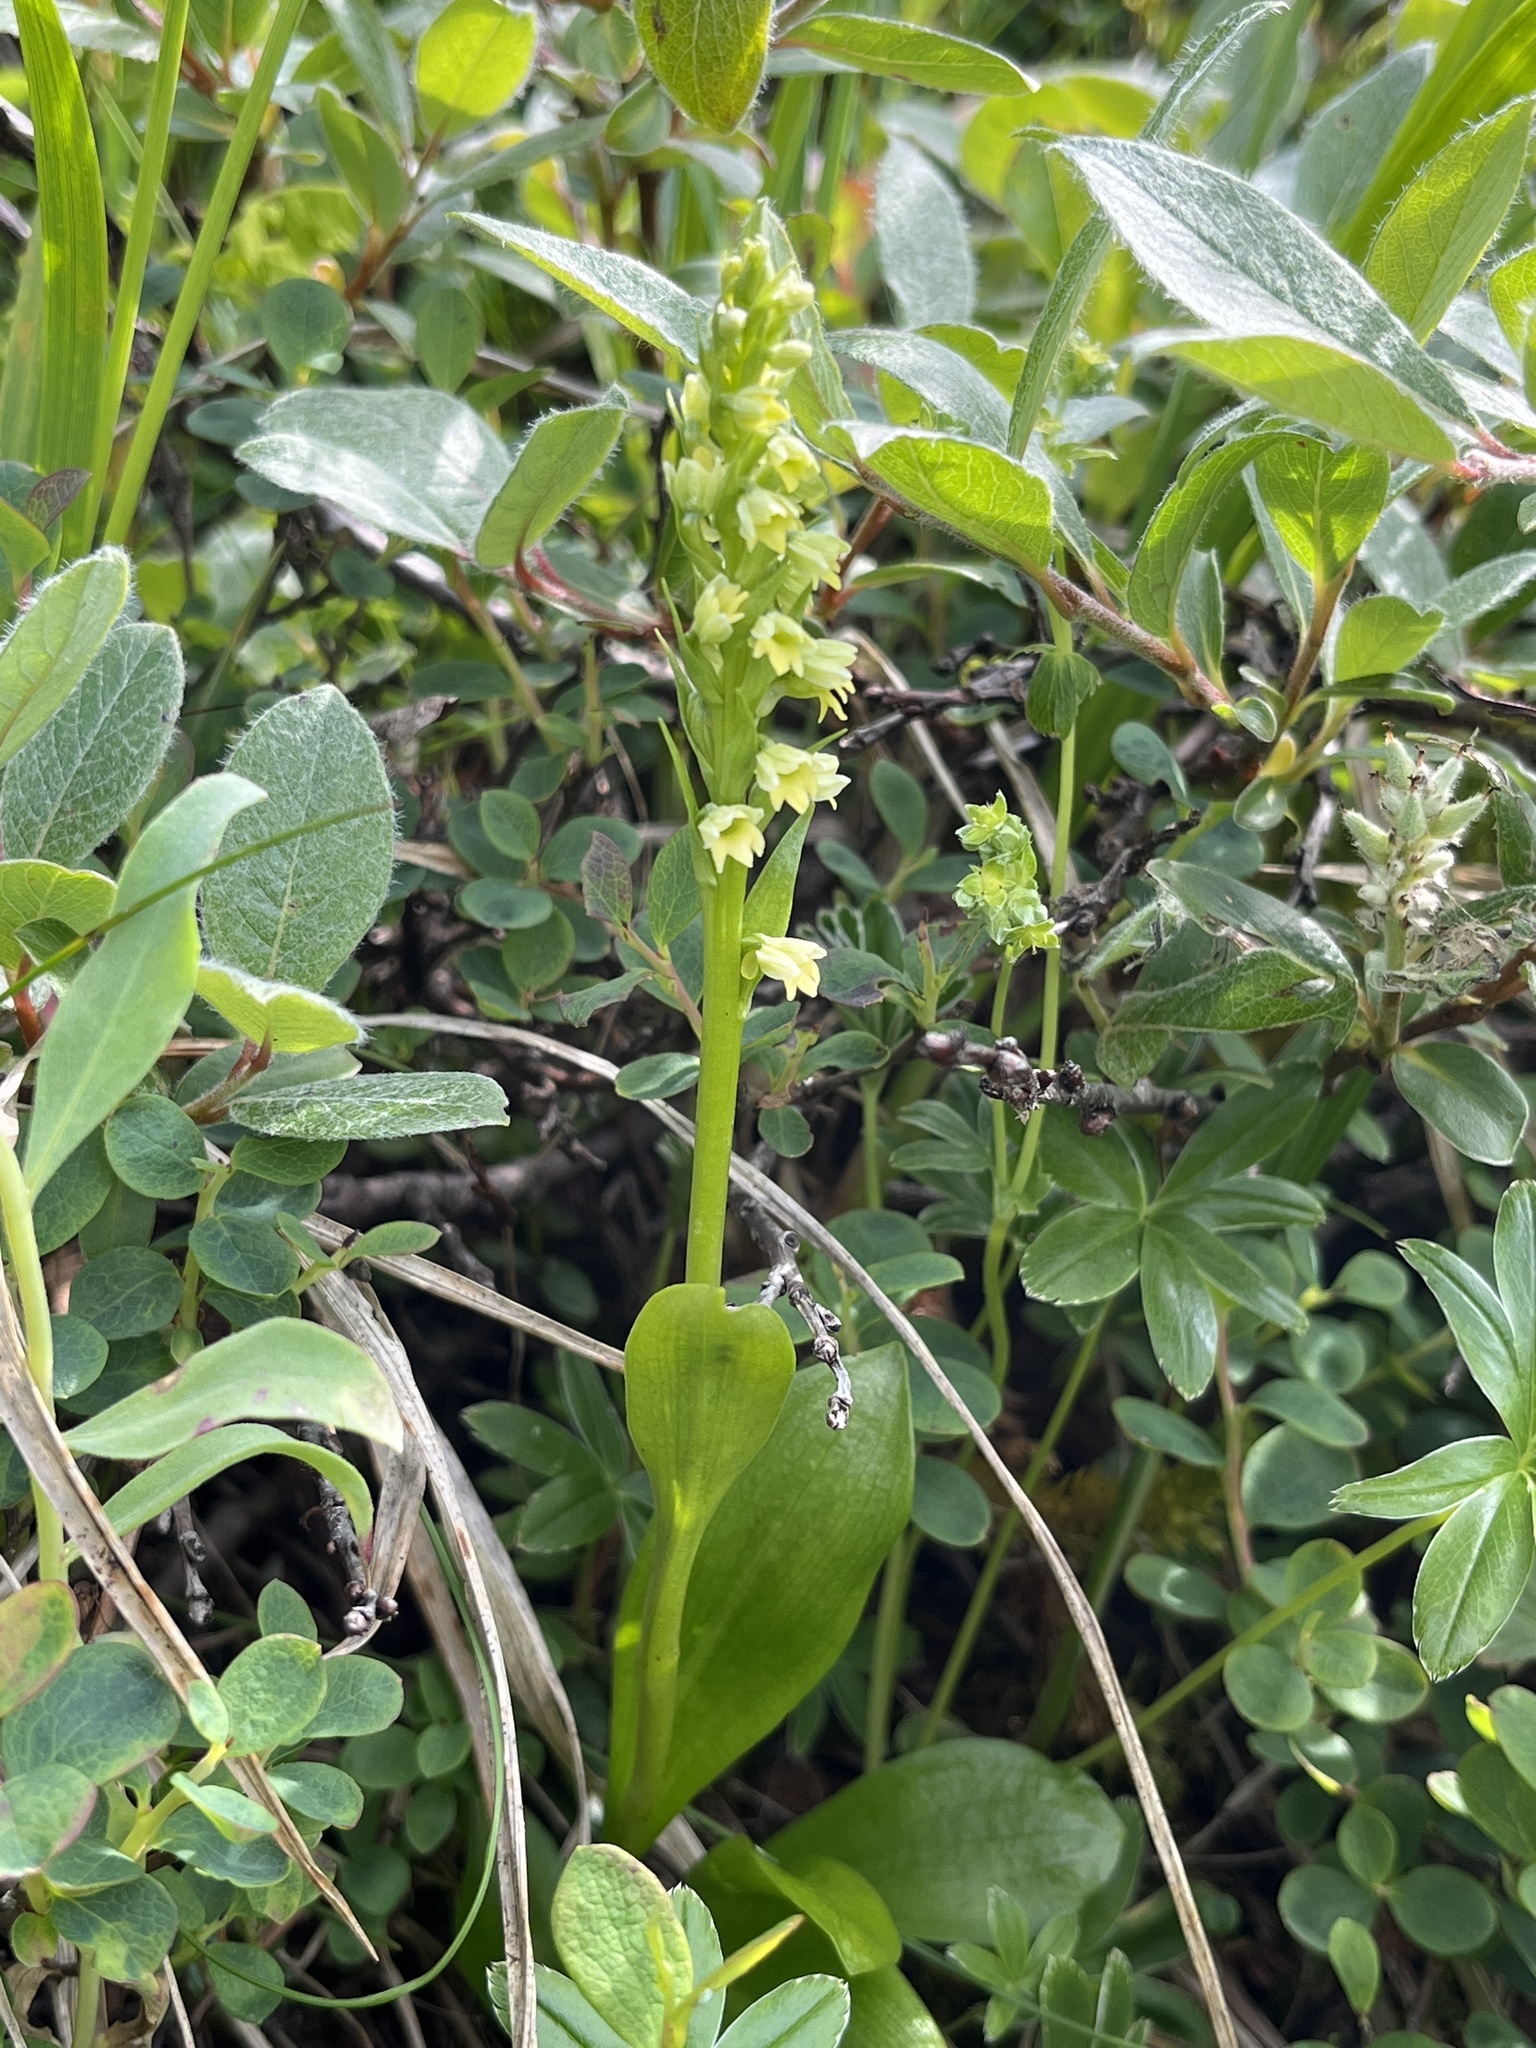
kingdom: Plantae
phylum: Tracheophyta
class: Liliopsida
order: Asparagales
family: Orchidaceae
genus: Pseudorchis
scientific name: Pseudorchis straminea
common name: Vanilla-scented bog orchid
